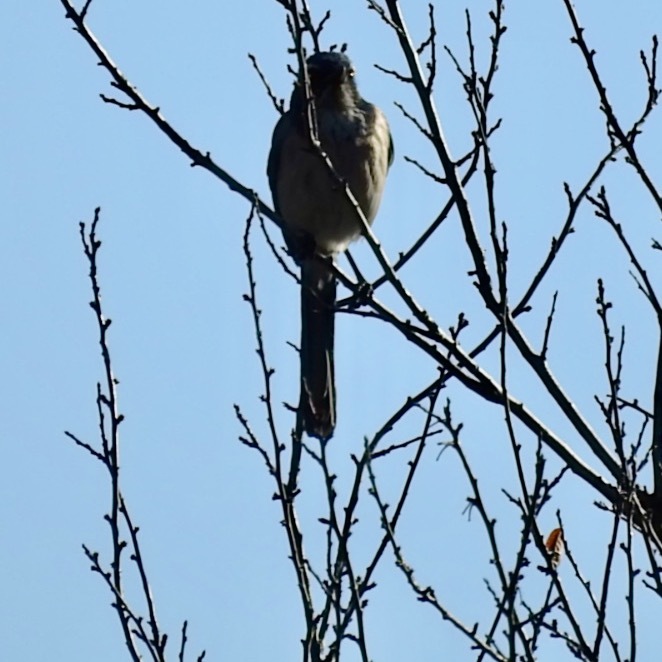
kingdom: Animalia
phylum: Chordata
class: Aves
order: Passeriformes
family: Corvidae
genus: Aphelocoma
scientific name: Aphelocoma californica
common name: California scrub-jay
